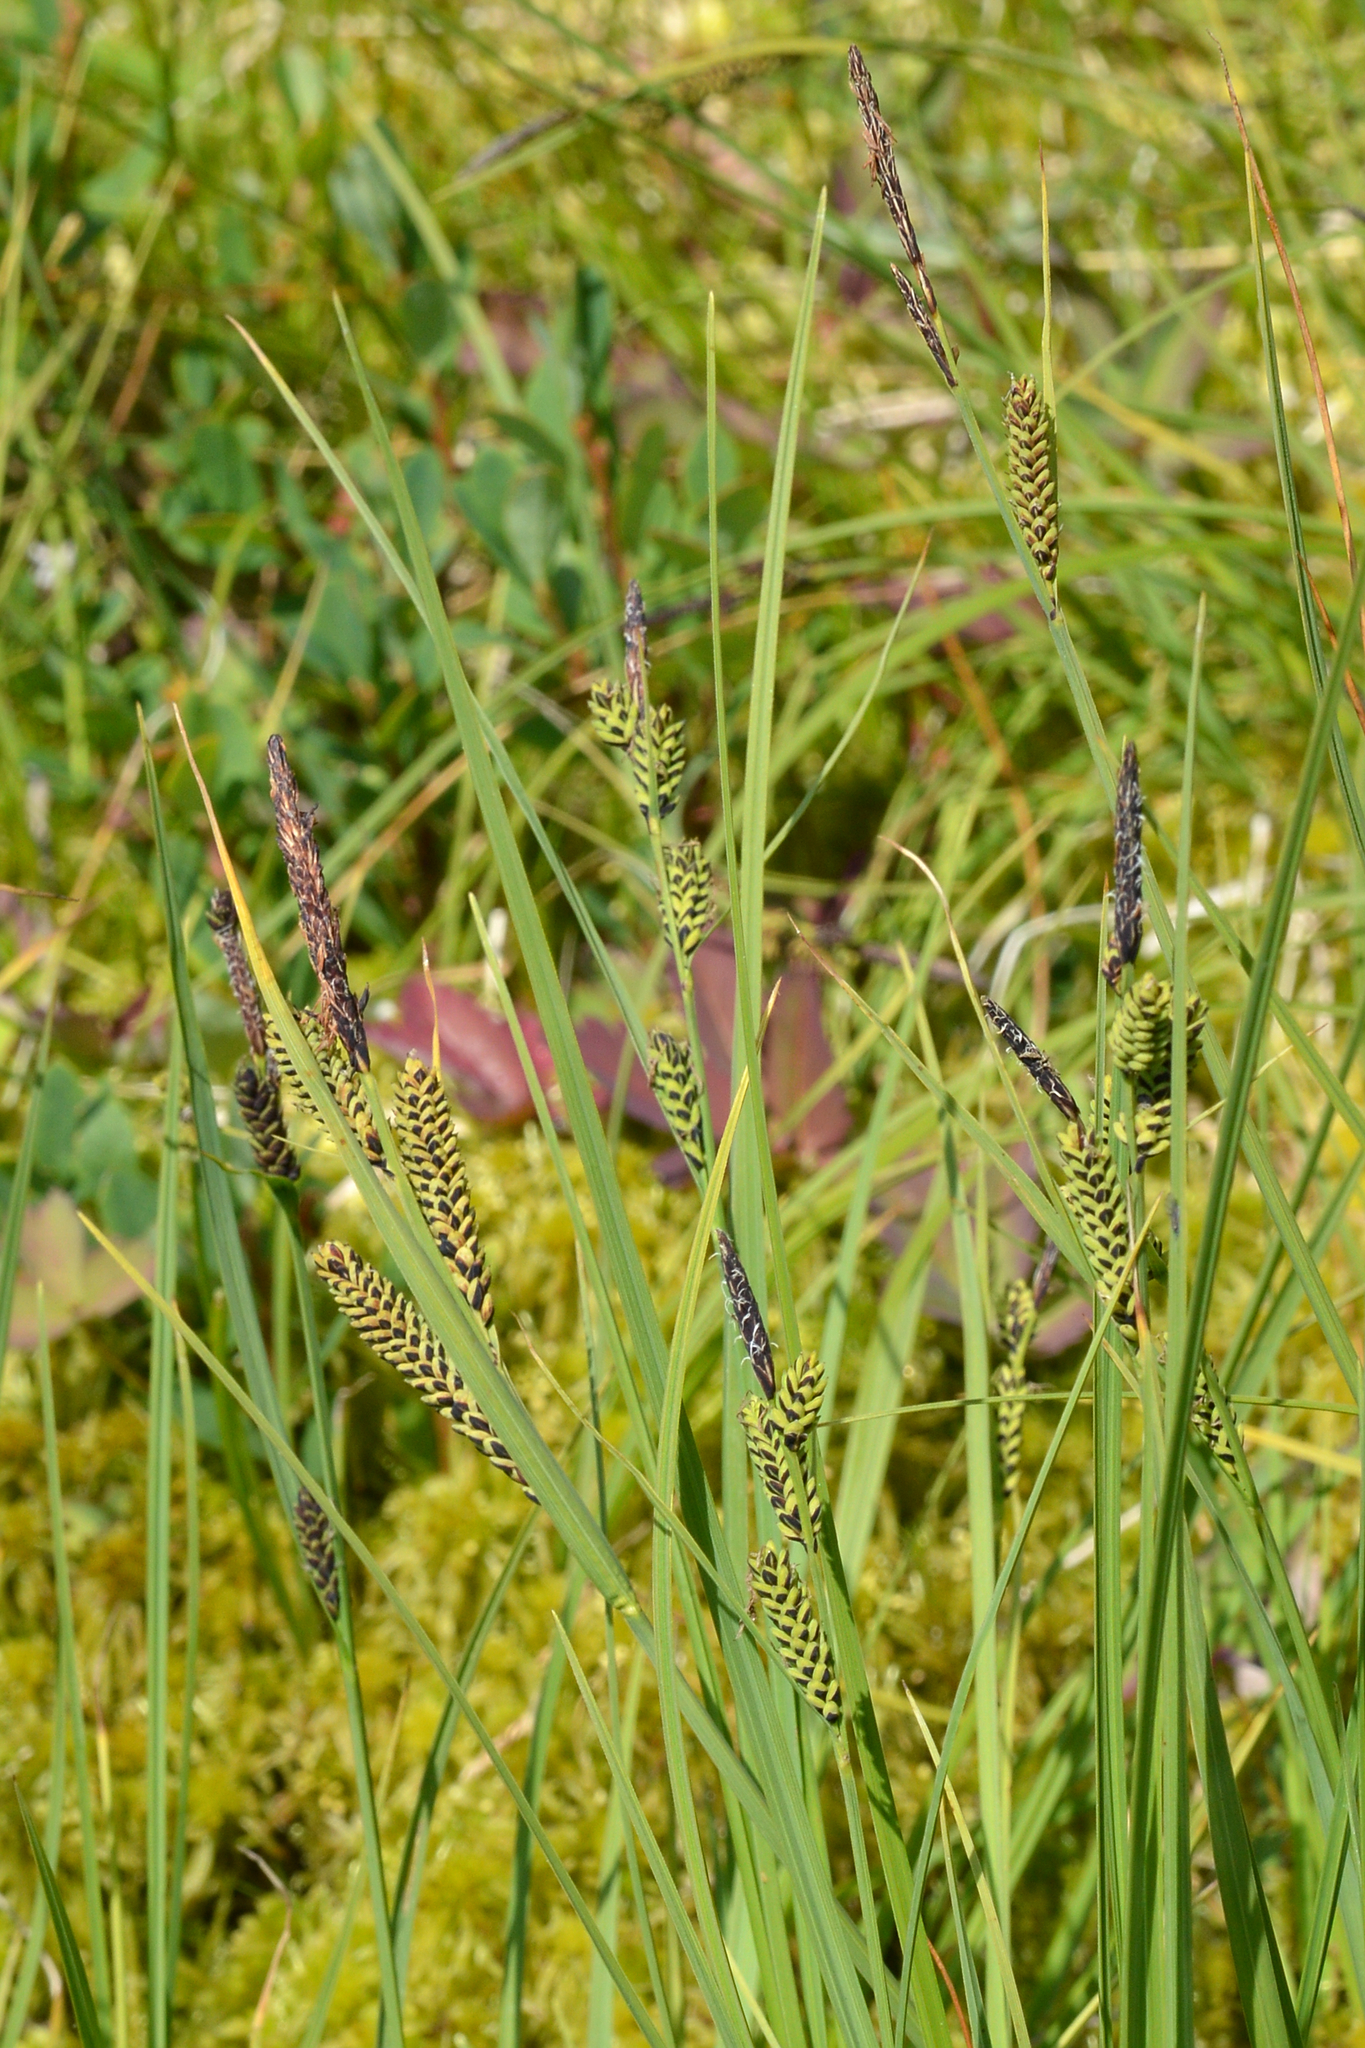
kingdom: Plantae
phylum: Tracheophyta
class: Liliopsida
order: Poales
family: Cyperaceae
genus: Carex
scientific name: Carex nigra
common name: Common sedge
